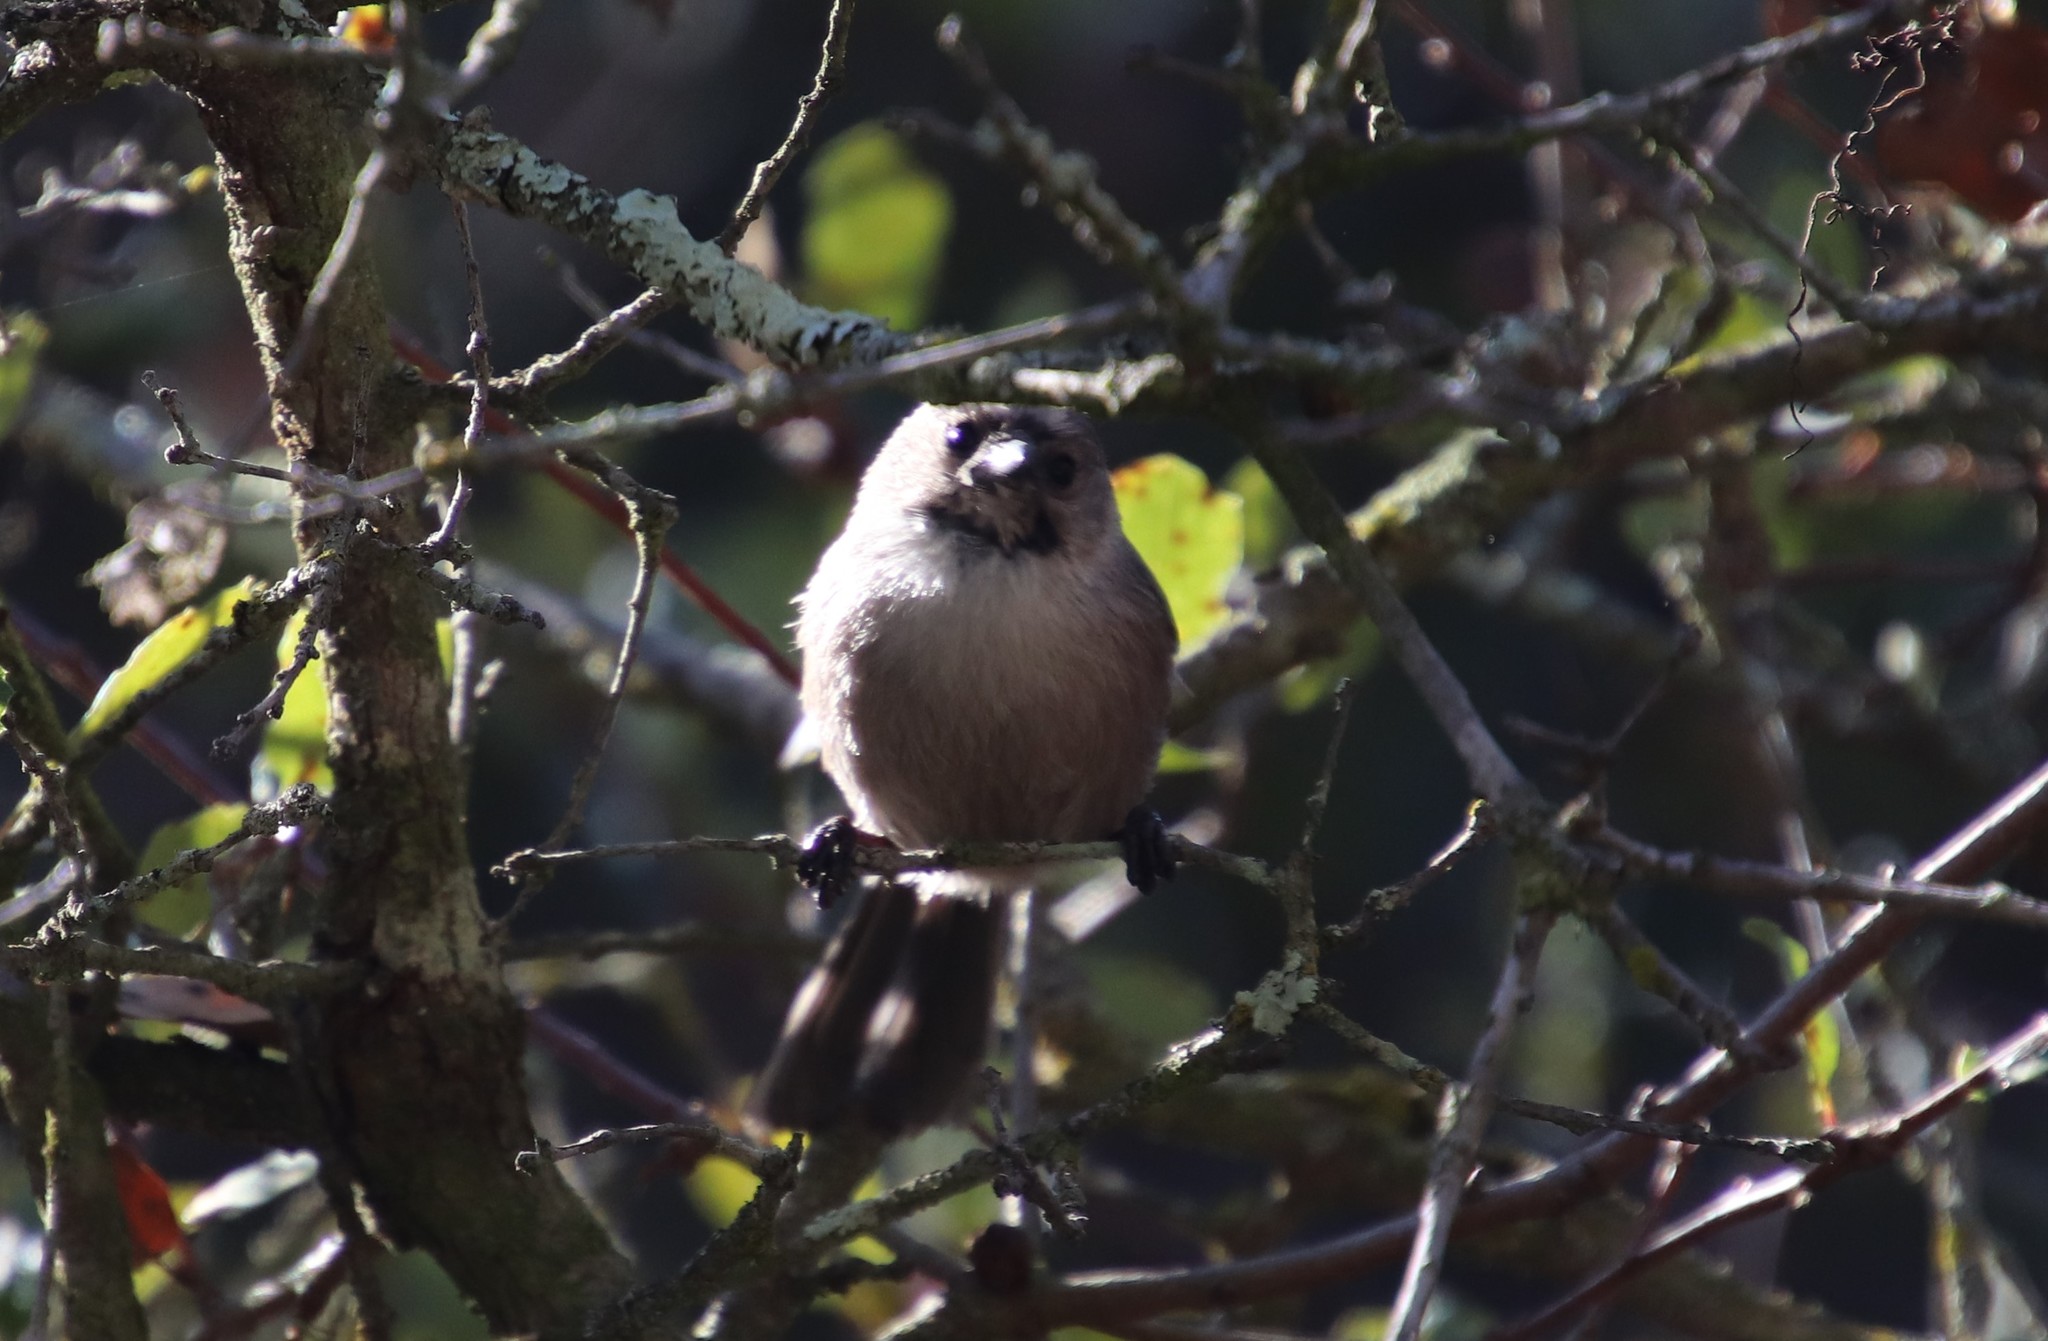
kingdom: Animalia
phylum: Chordata
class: Aves
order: Passeriformes
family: Aegithalidae
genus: Psaltriparus
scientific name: Psaltriparus minimus
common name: American bushtit
